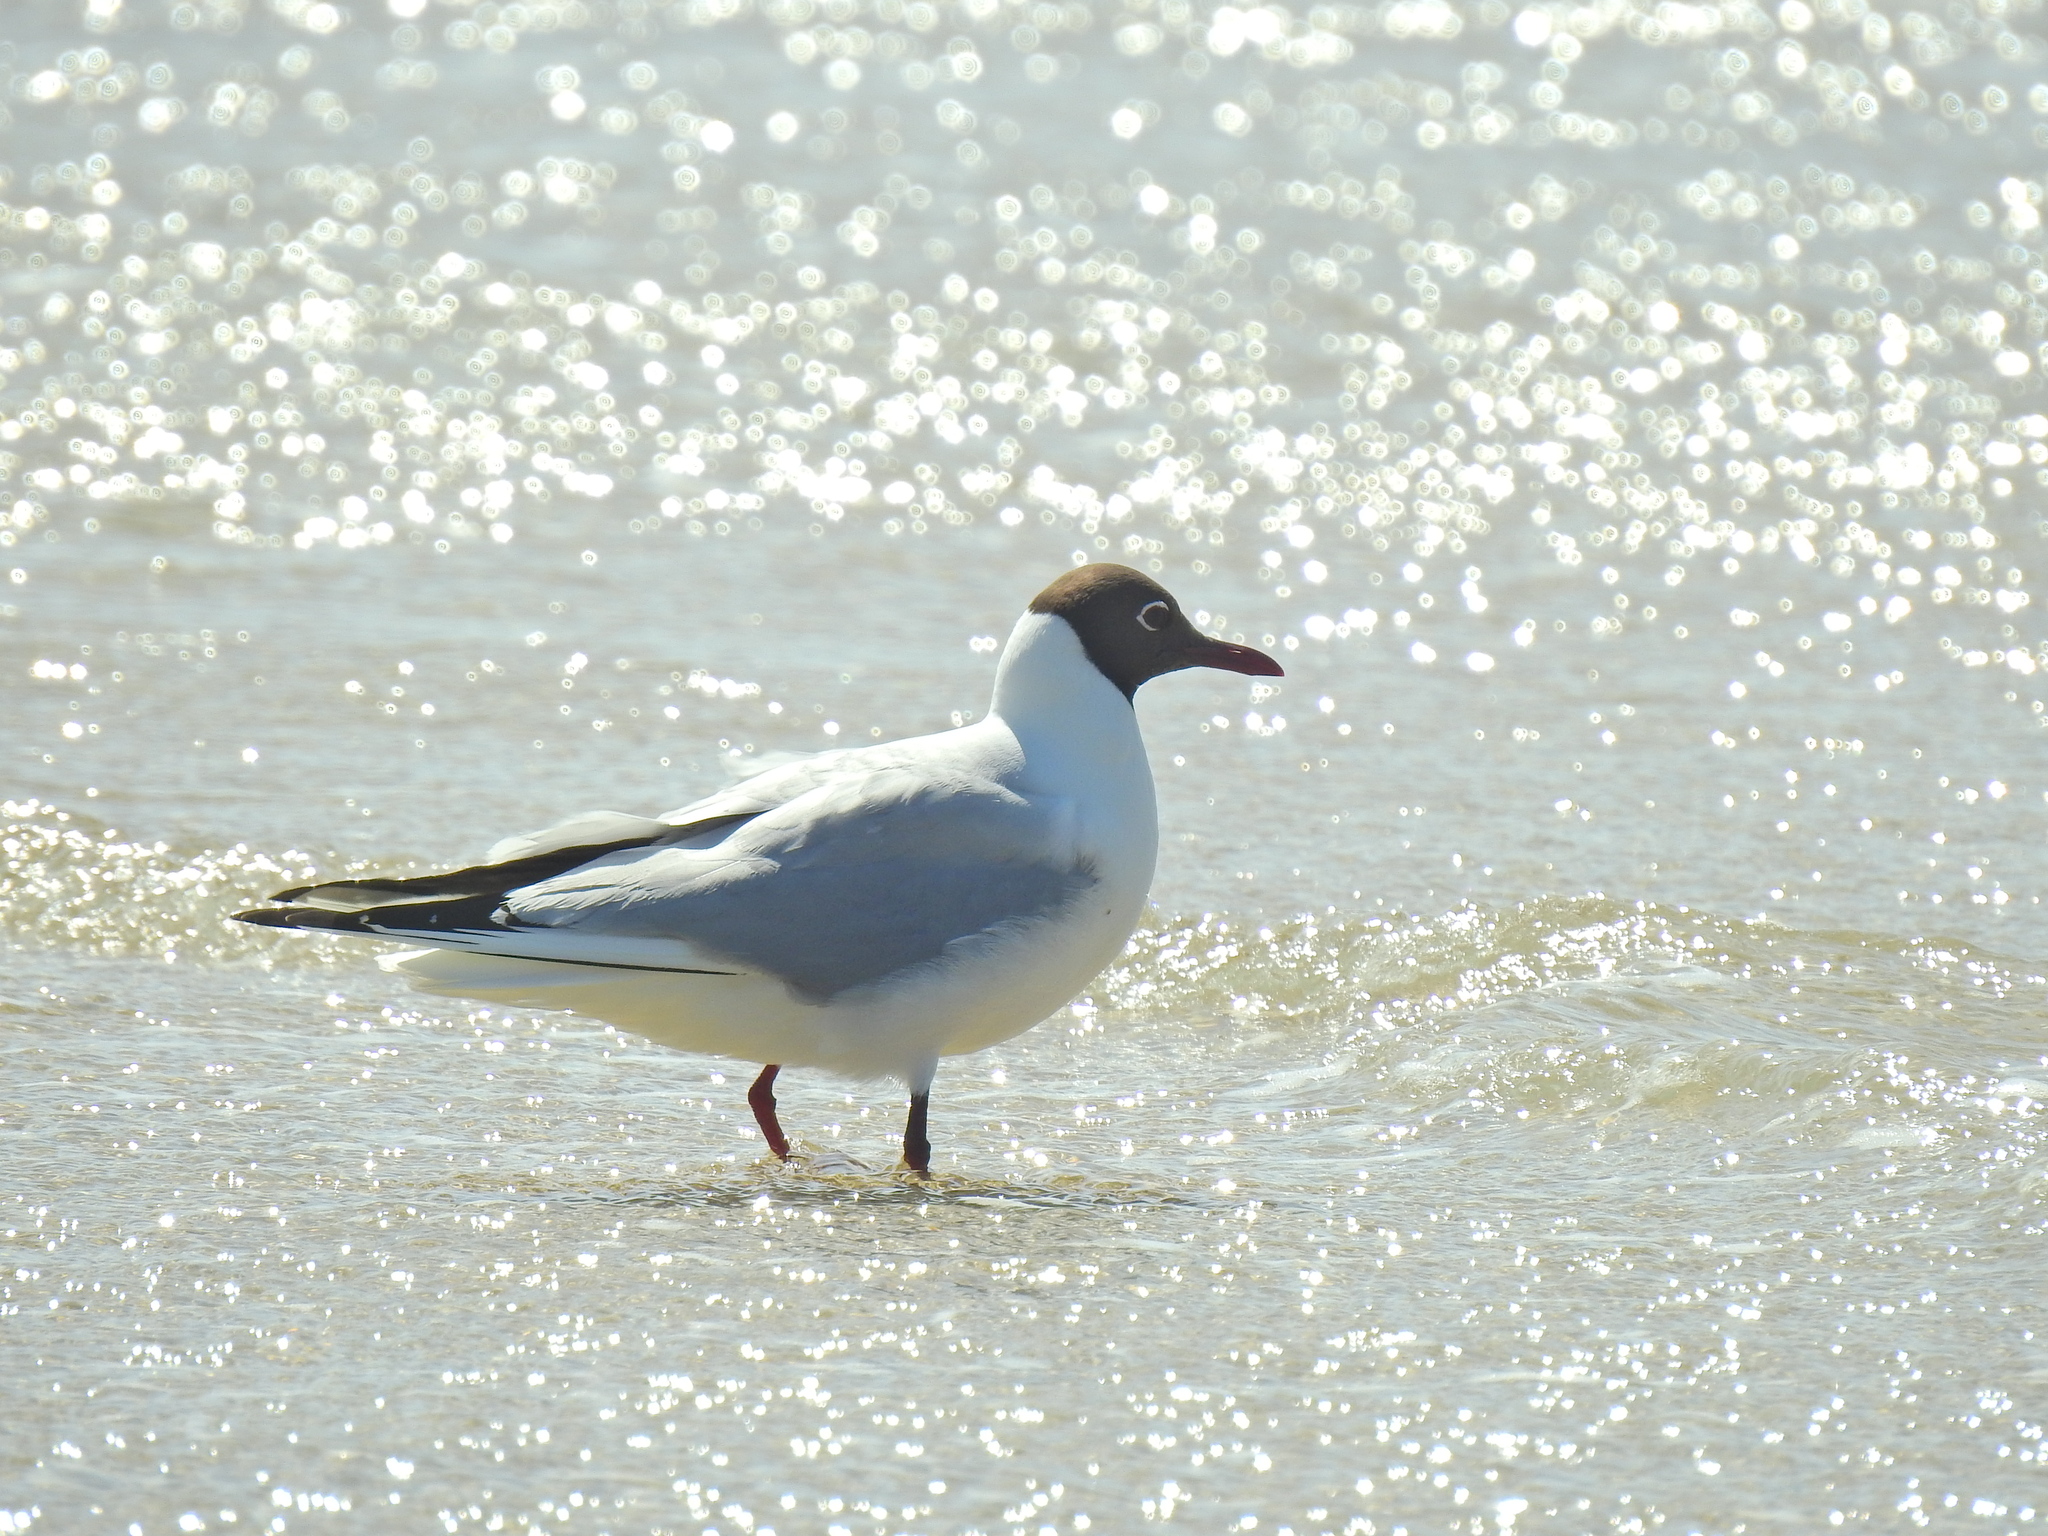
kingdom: Animalia
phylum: Chordata
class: Aves
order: Charadriiformes
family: Laridae
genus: Chroicocephalus
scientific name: Chroicocephalus ridibundus
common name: Black-headed gull
